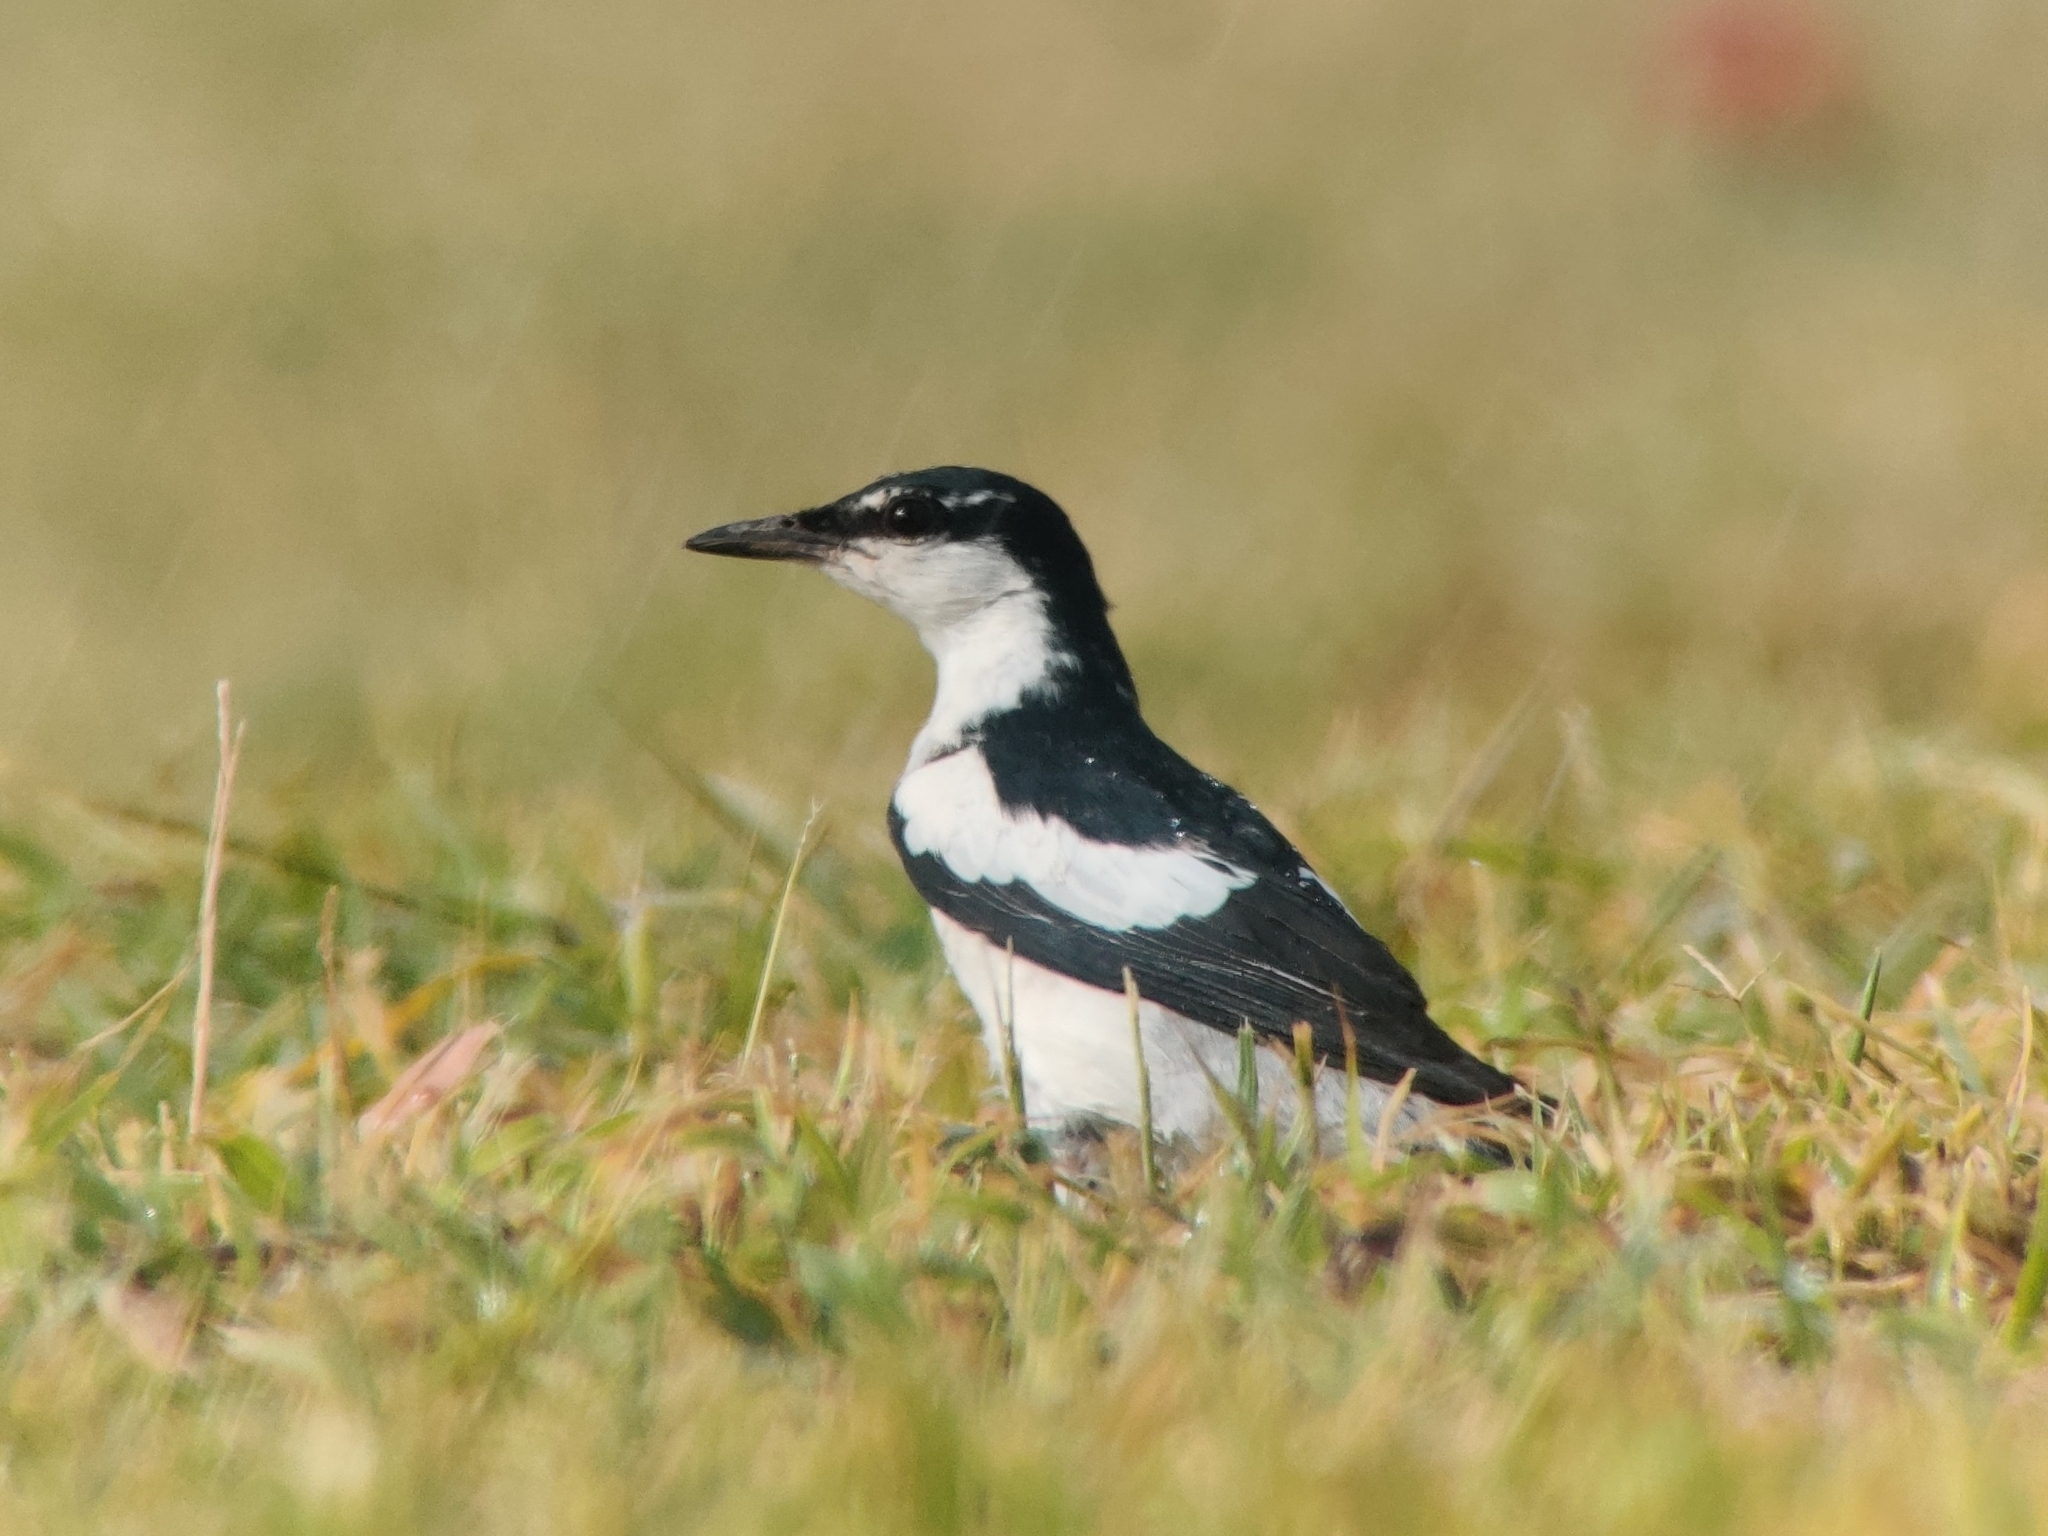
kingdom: Animalia
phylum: Chordata
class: Aves
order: Passeriformes
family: Campephagidae
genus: Lalage
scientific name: Lalage tricolor
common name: White-winged triller
